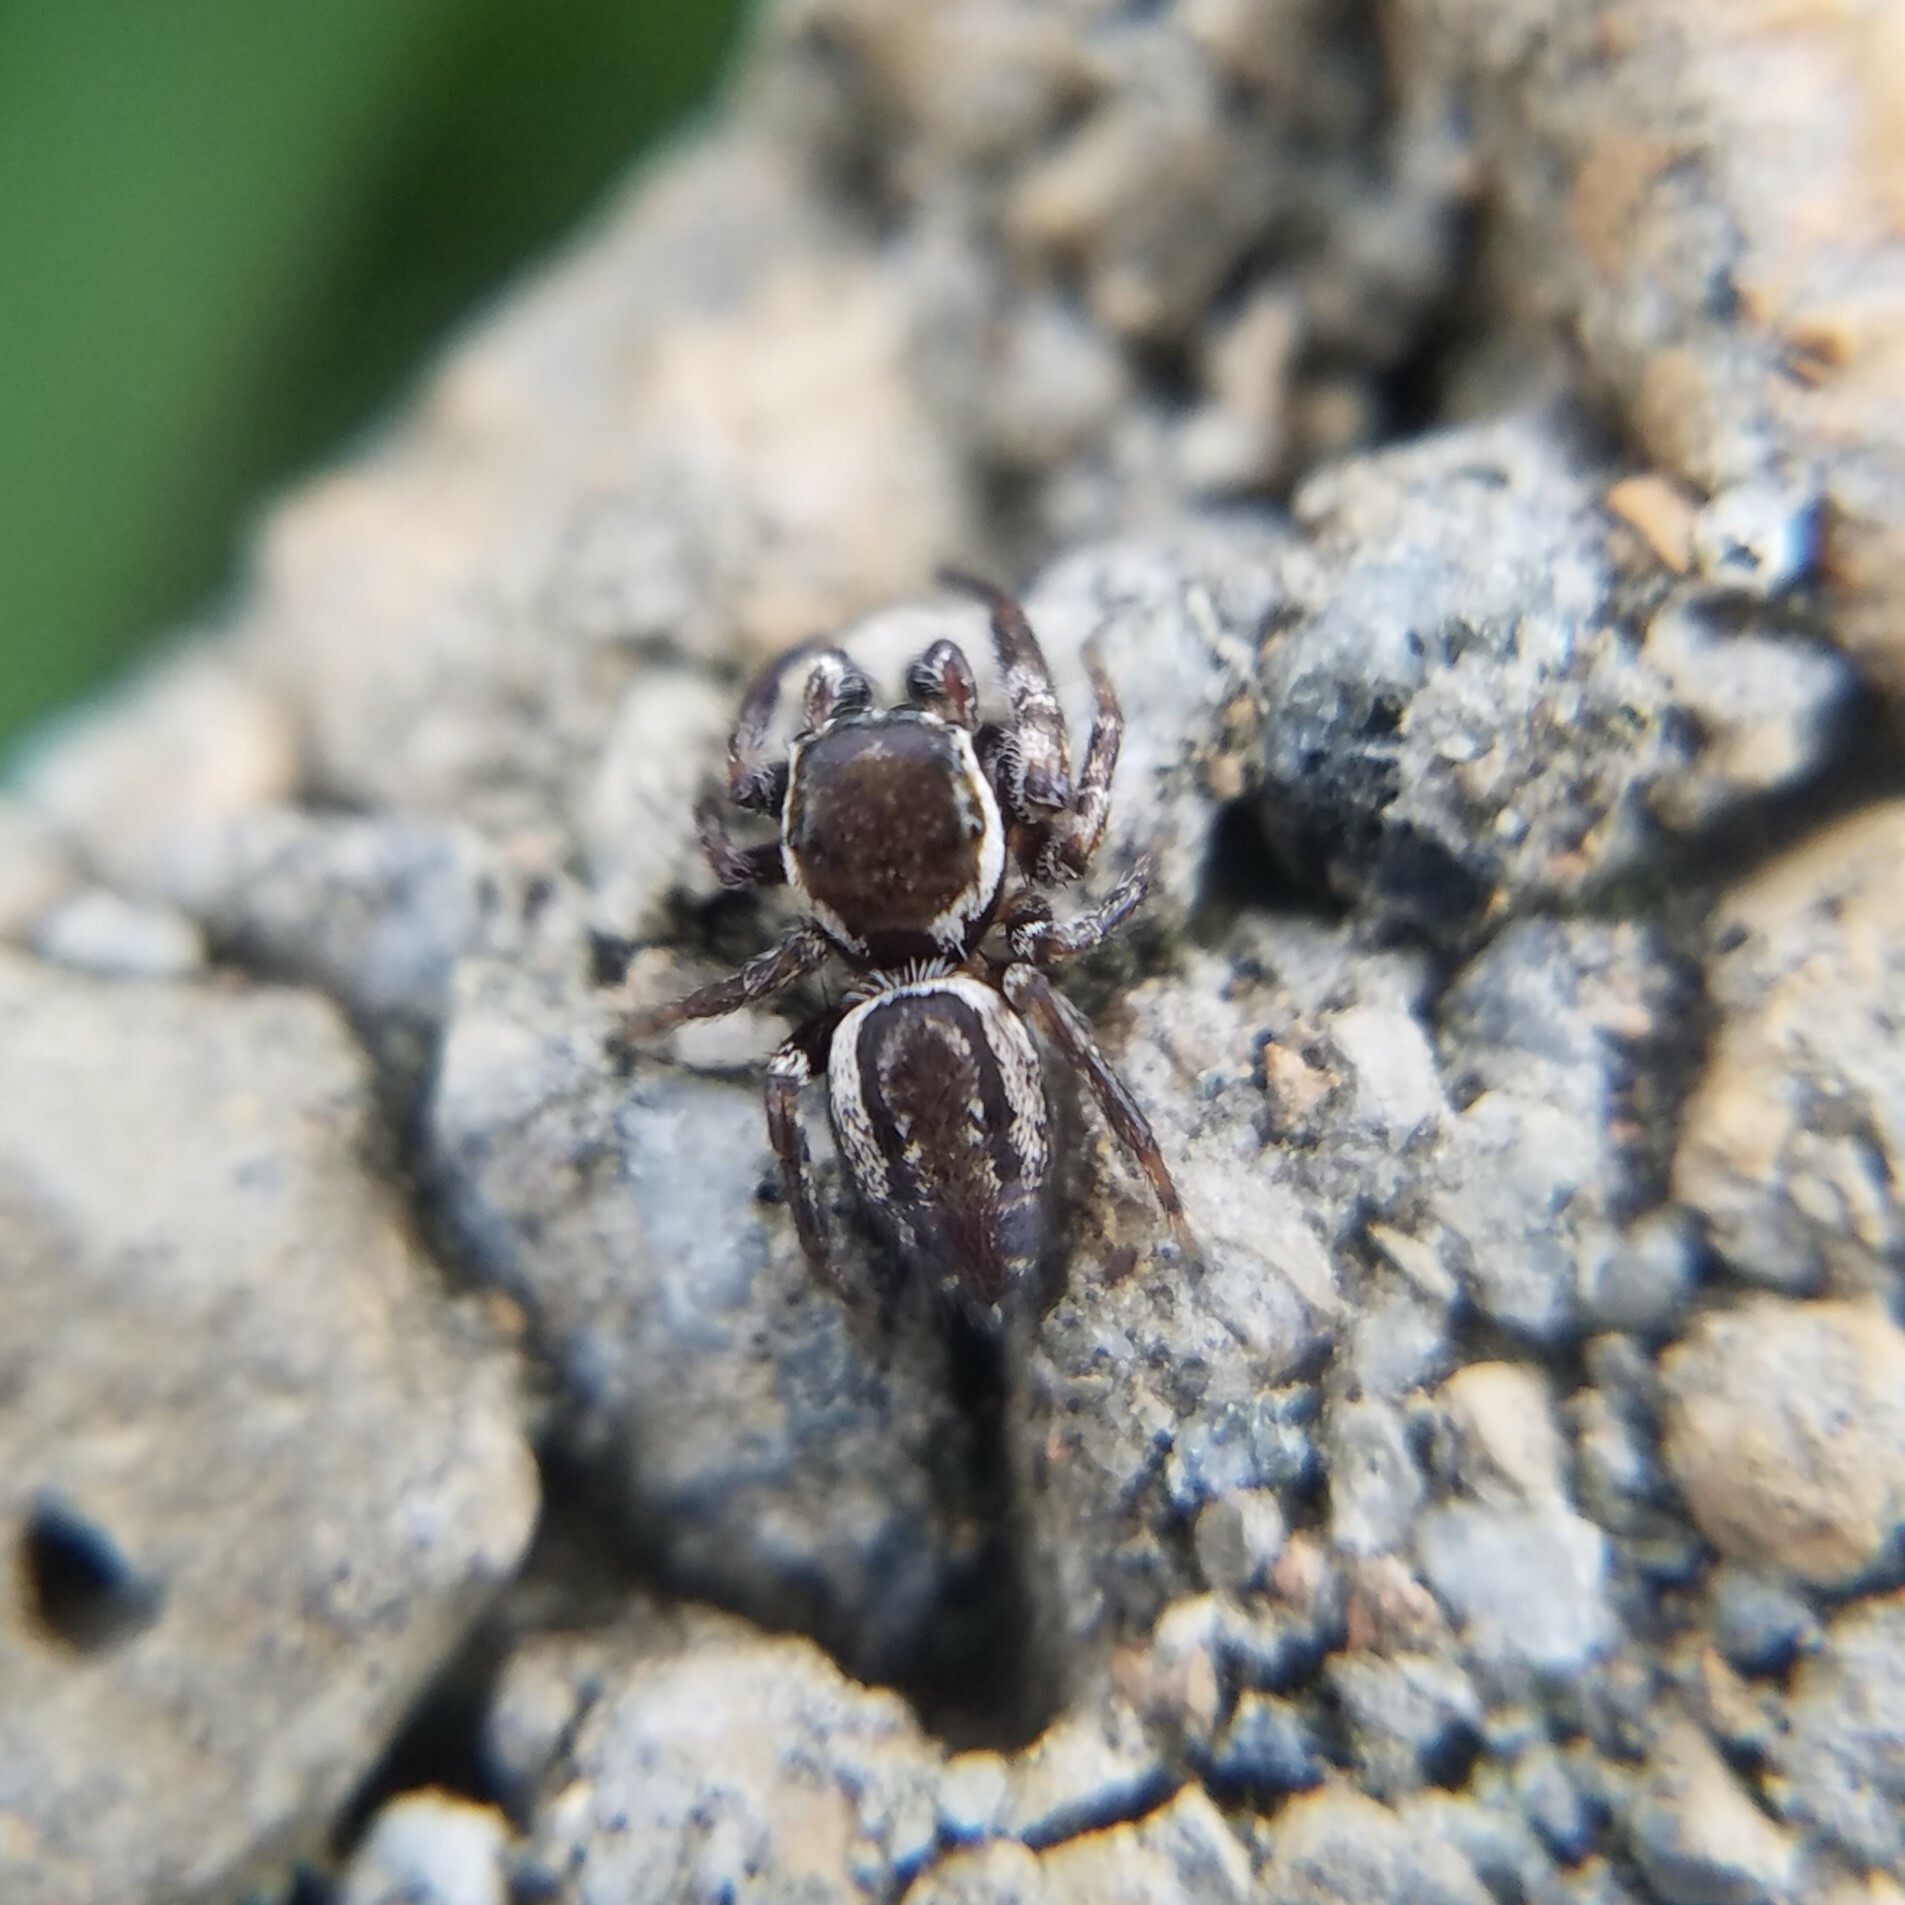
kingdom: Animalia
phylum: Arthropoda
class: Arachnida
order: Araneae
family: Salticidae
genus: Pelegrina
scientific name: Pelegrina exigua
